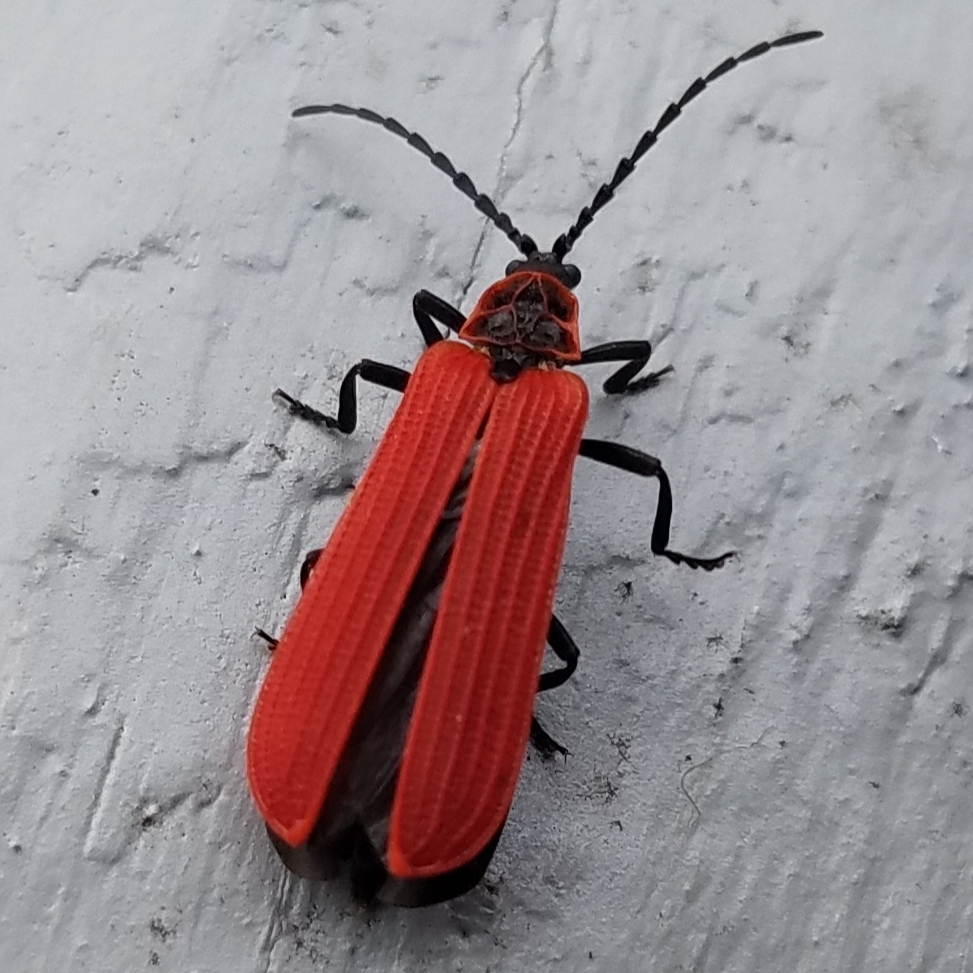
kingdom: Animalia
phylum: Arthropoda
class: Insecta
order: Coleoptera
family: Lycidae
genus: Dictyoptera
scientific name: Dictyoptera aurora
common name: Golden net-winged beetle
